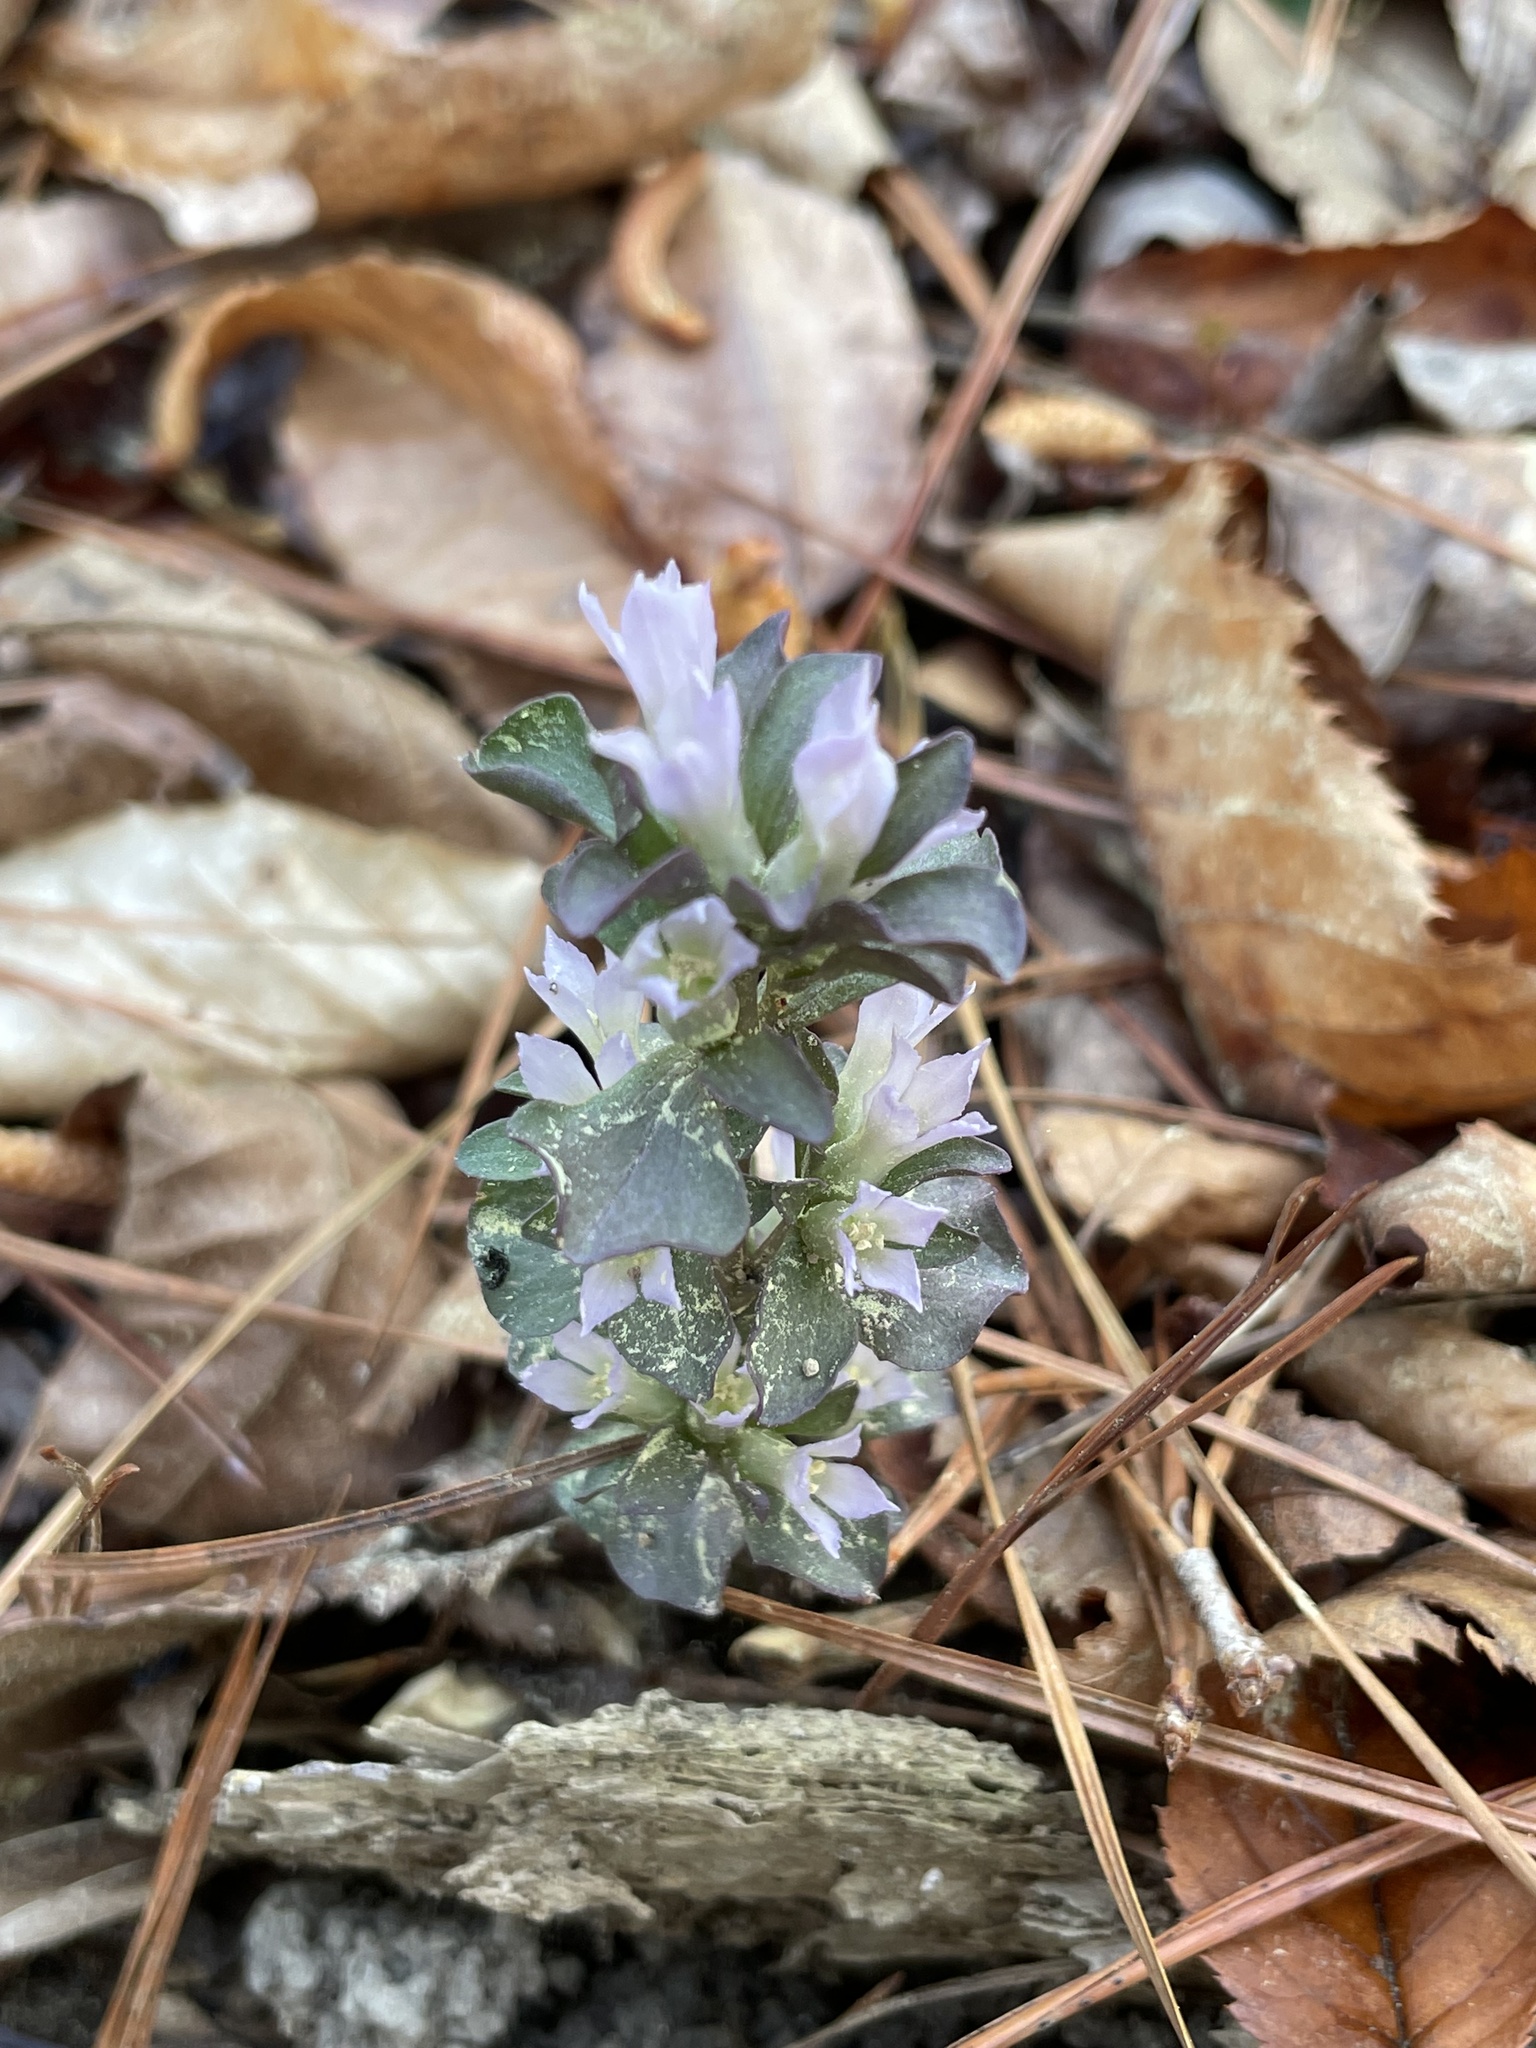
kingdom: Plantae
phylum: Tracheophyta
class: Magnoliopsida
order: Gentianales
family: Gentianaceae
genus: Obolaria
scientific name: Obolaria virginica
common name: Pennywort
